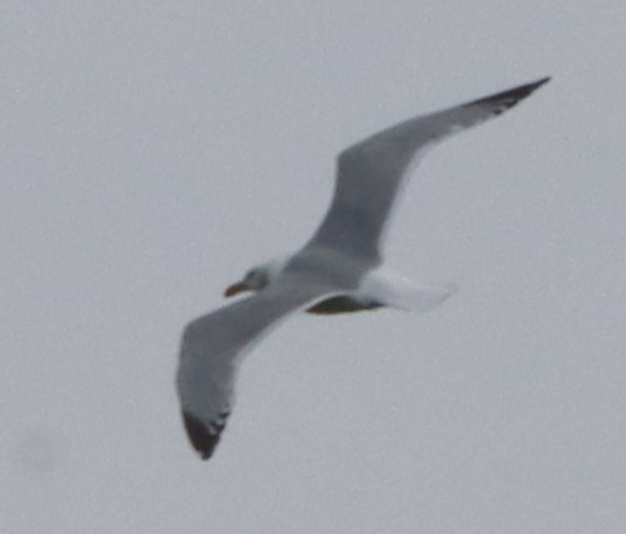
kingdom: Animalia
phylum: Chordata
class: Aves
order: Charadriiformes
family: Laridae
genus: Larus
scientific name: Larus argentatus
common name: Herring gull
